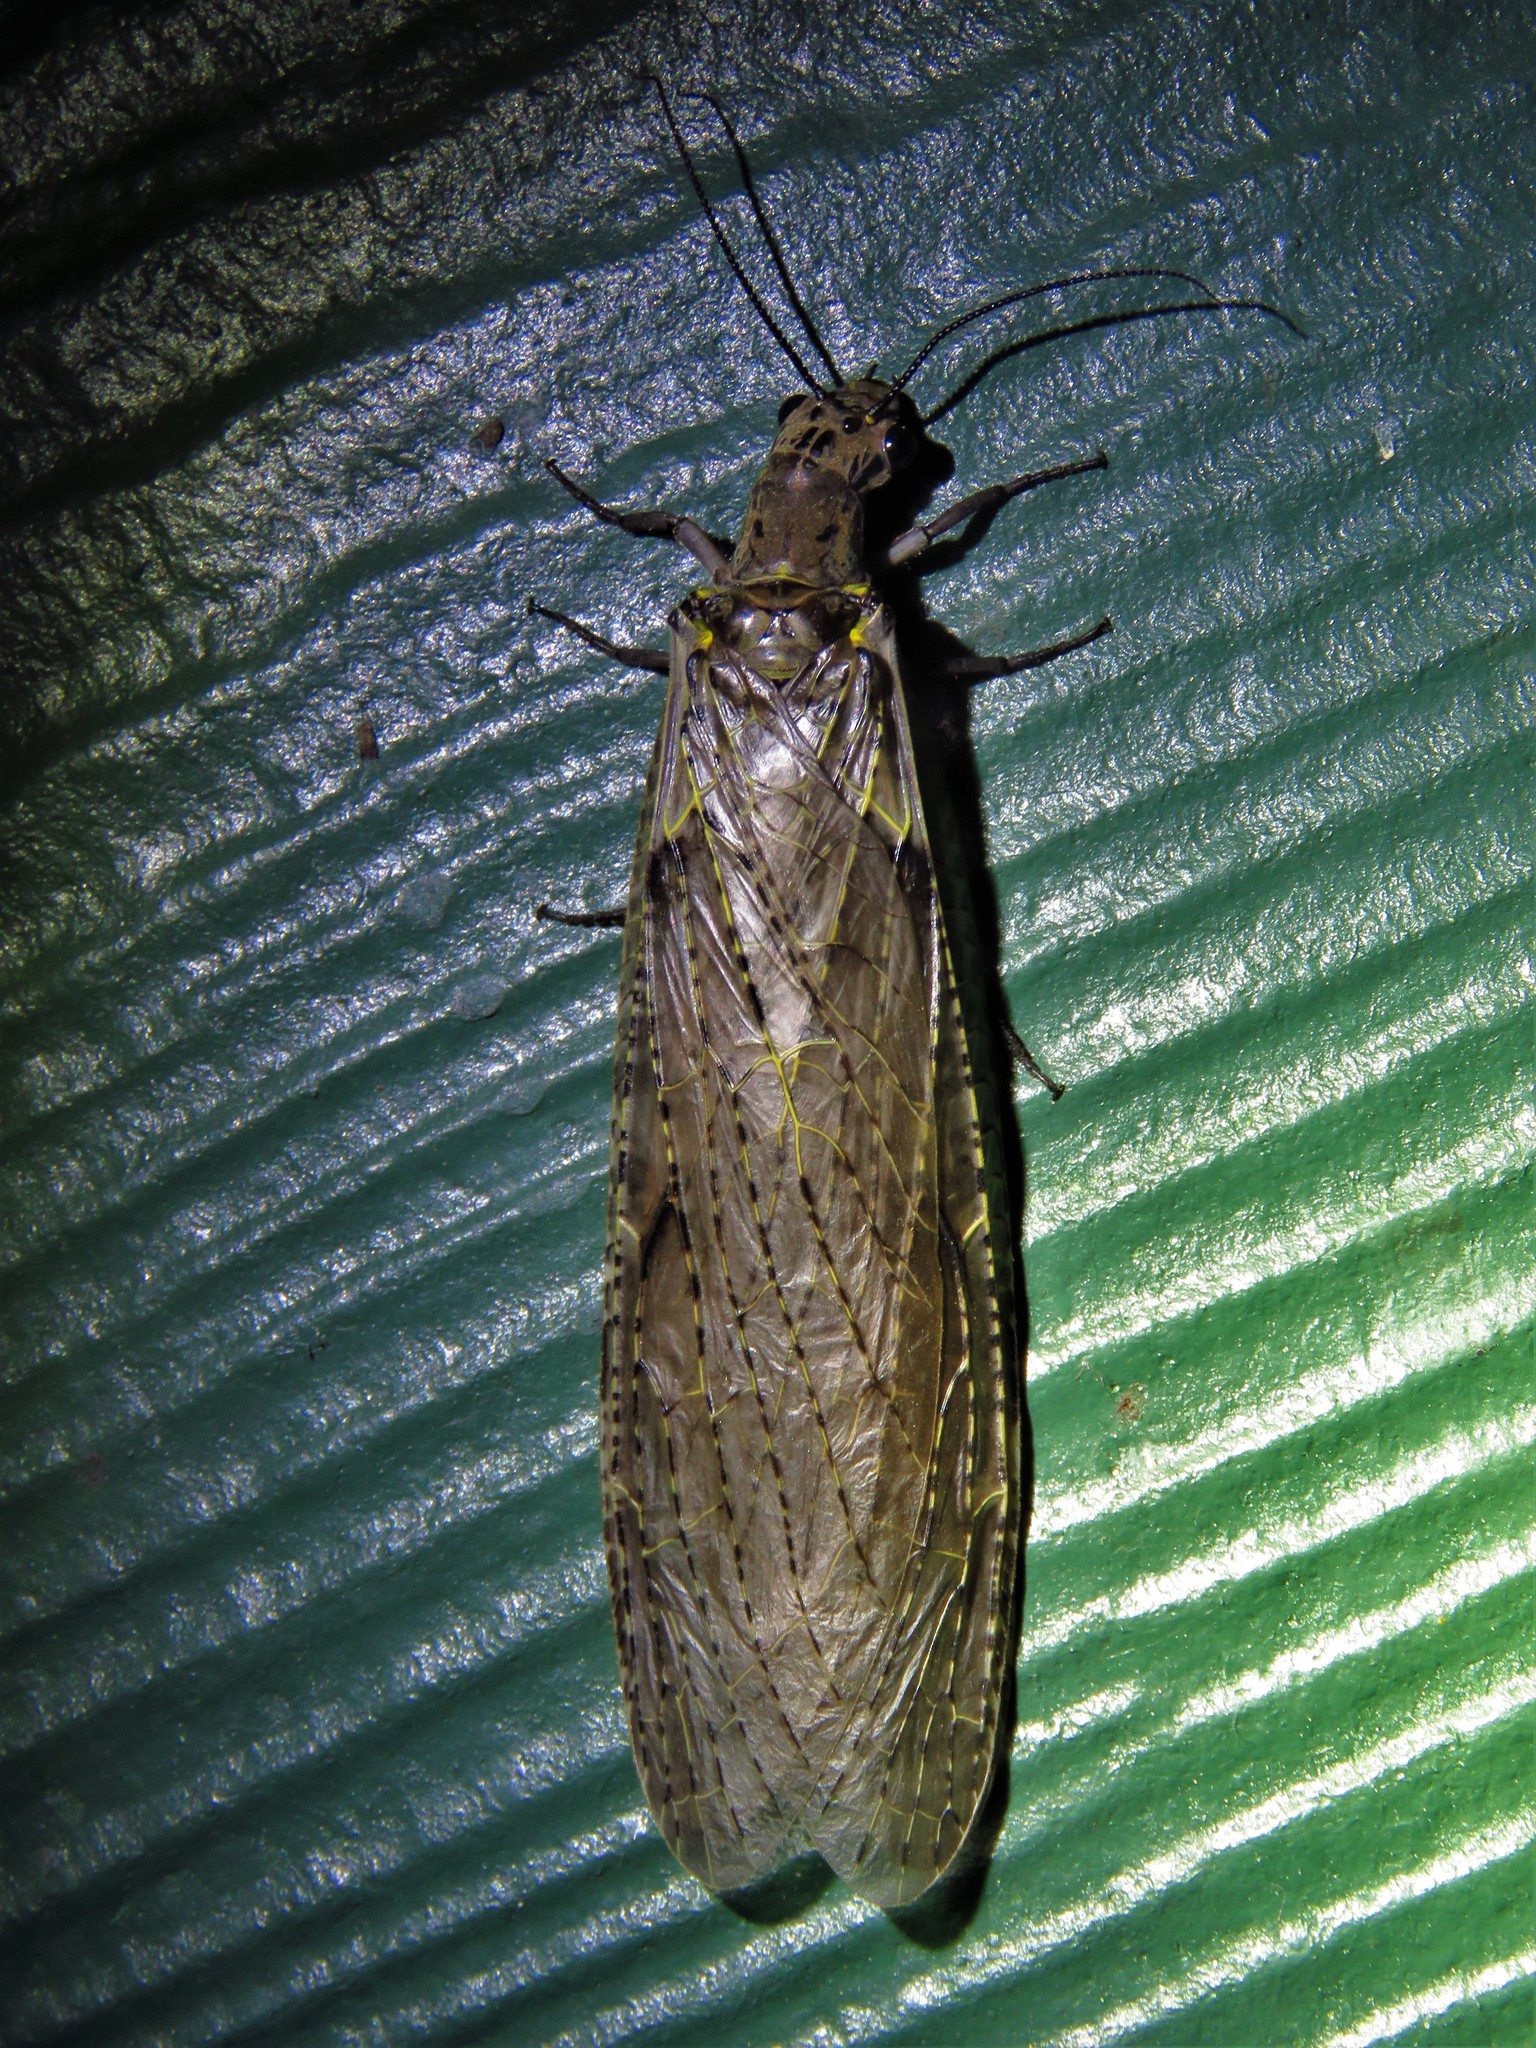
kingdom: Animalia
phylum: Arthropoda
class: Insecta
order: Megaloptera
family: Corydalidae
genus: Chauliodes
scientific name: Chauliodes rastricornis
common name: Spring fishfly
